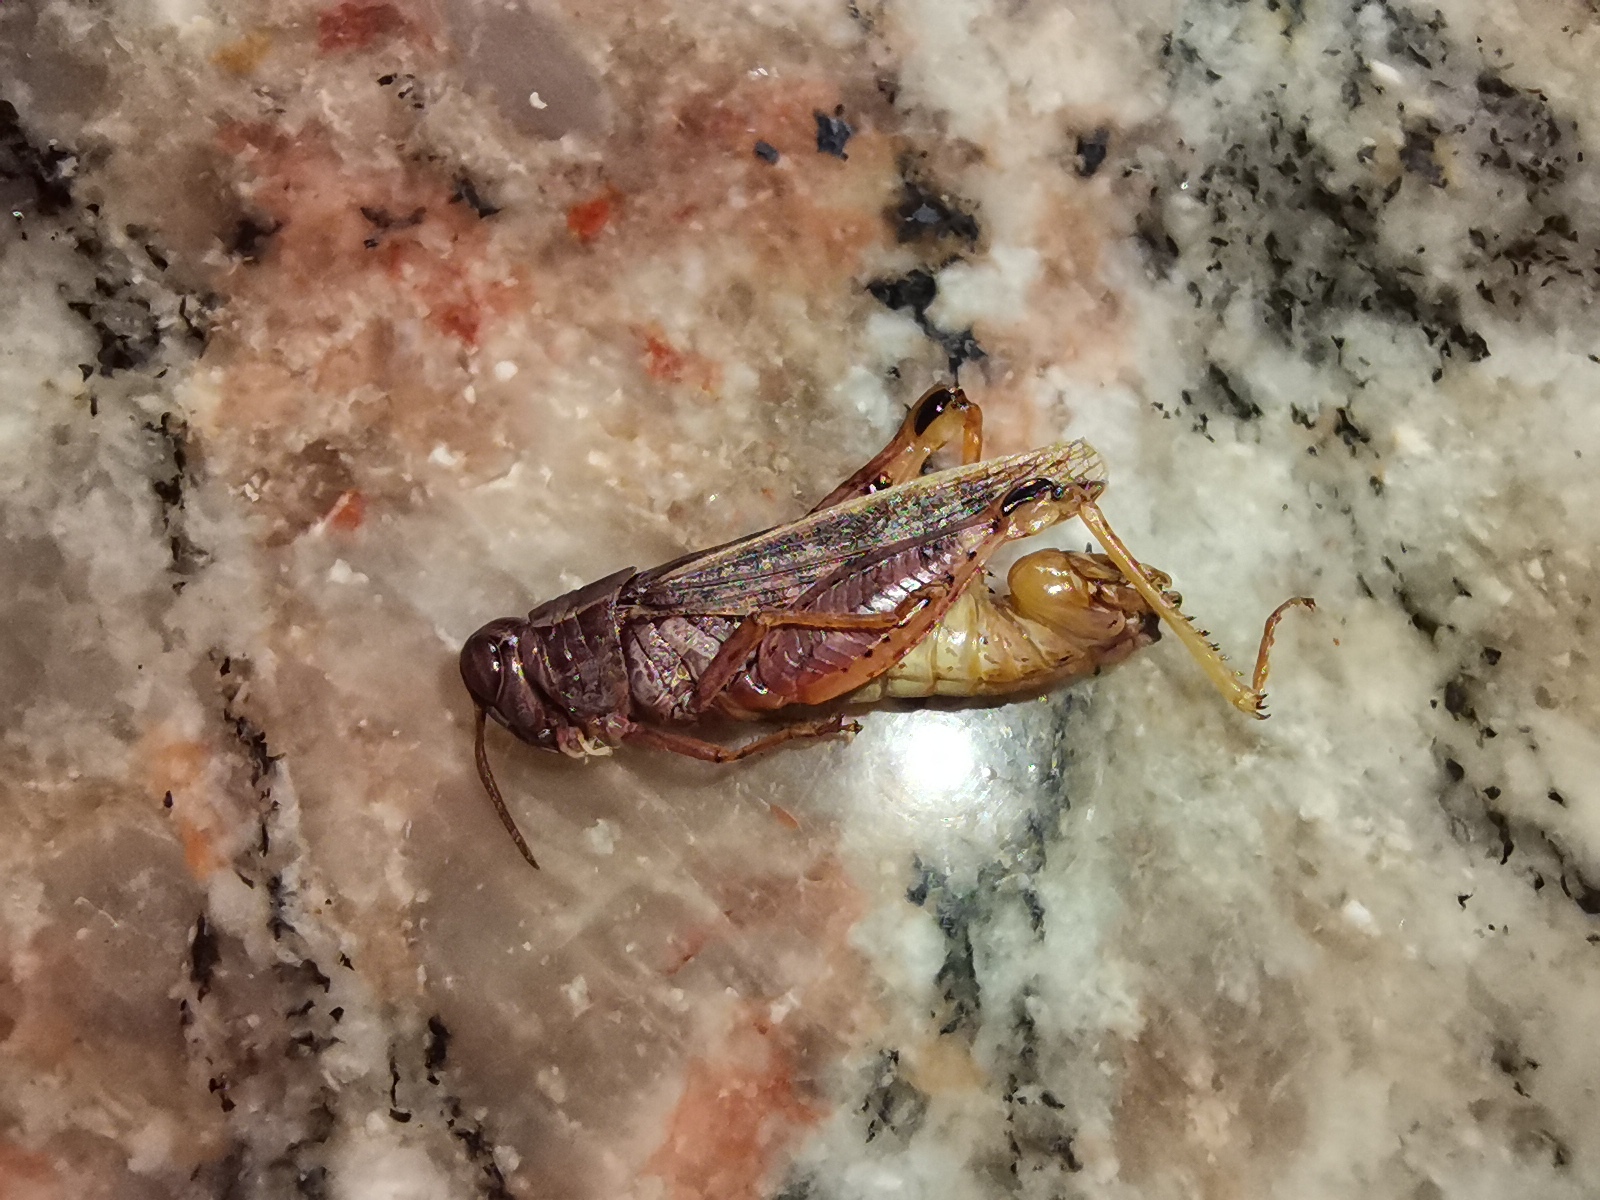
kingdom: Animalia
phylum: Arthropoda
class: Insecta
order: Orthoptera
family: Acrididae
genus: Calliptamus
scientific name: Calliptamus italicus
